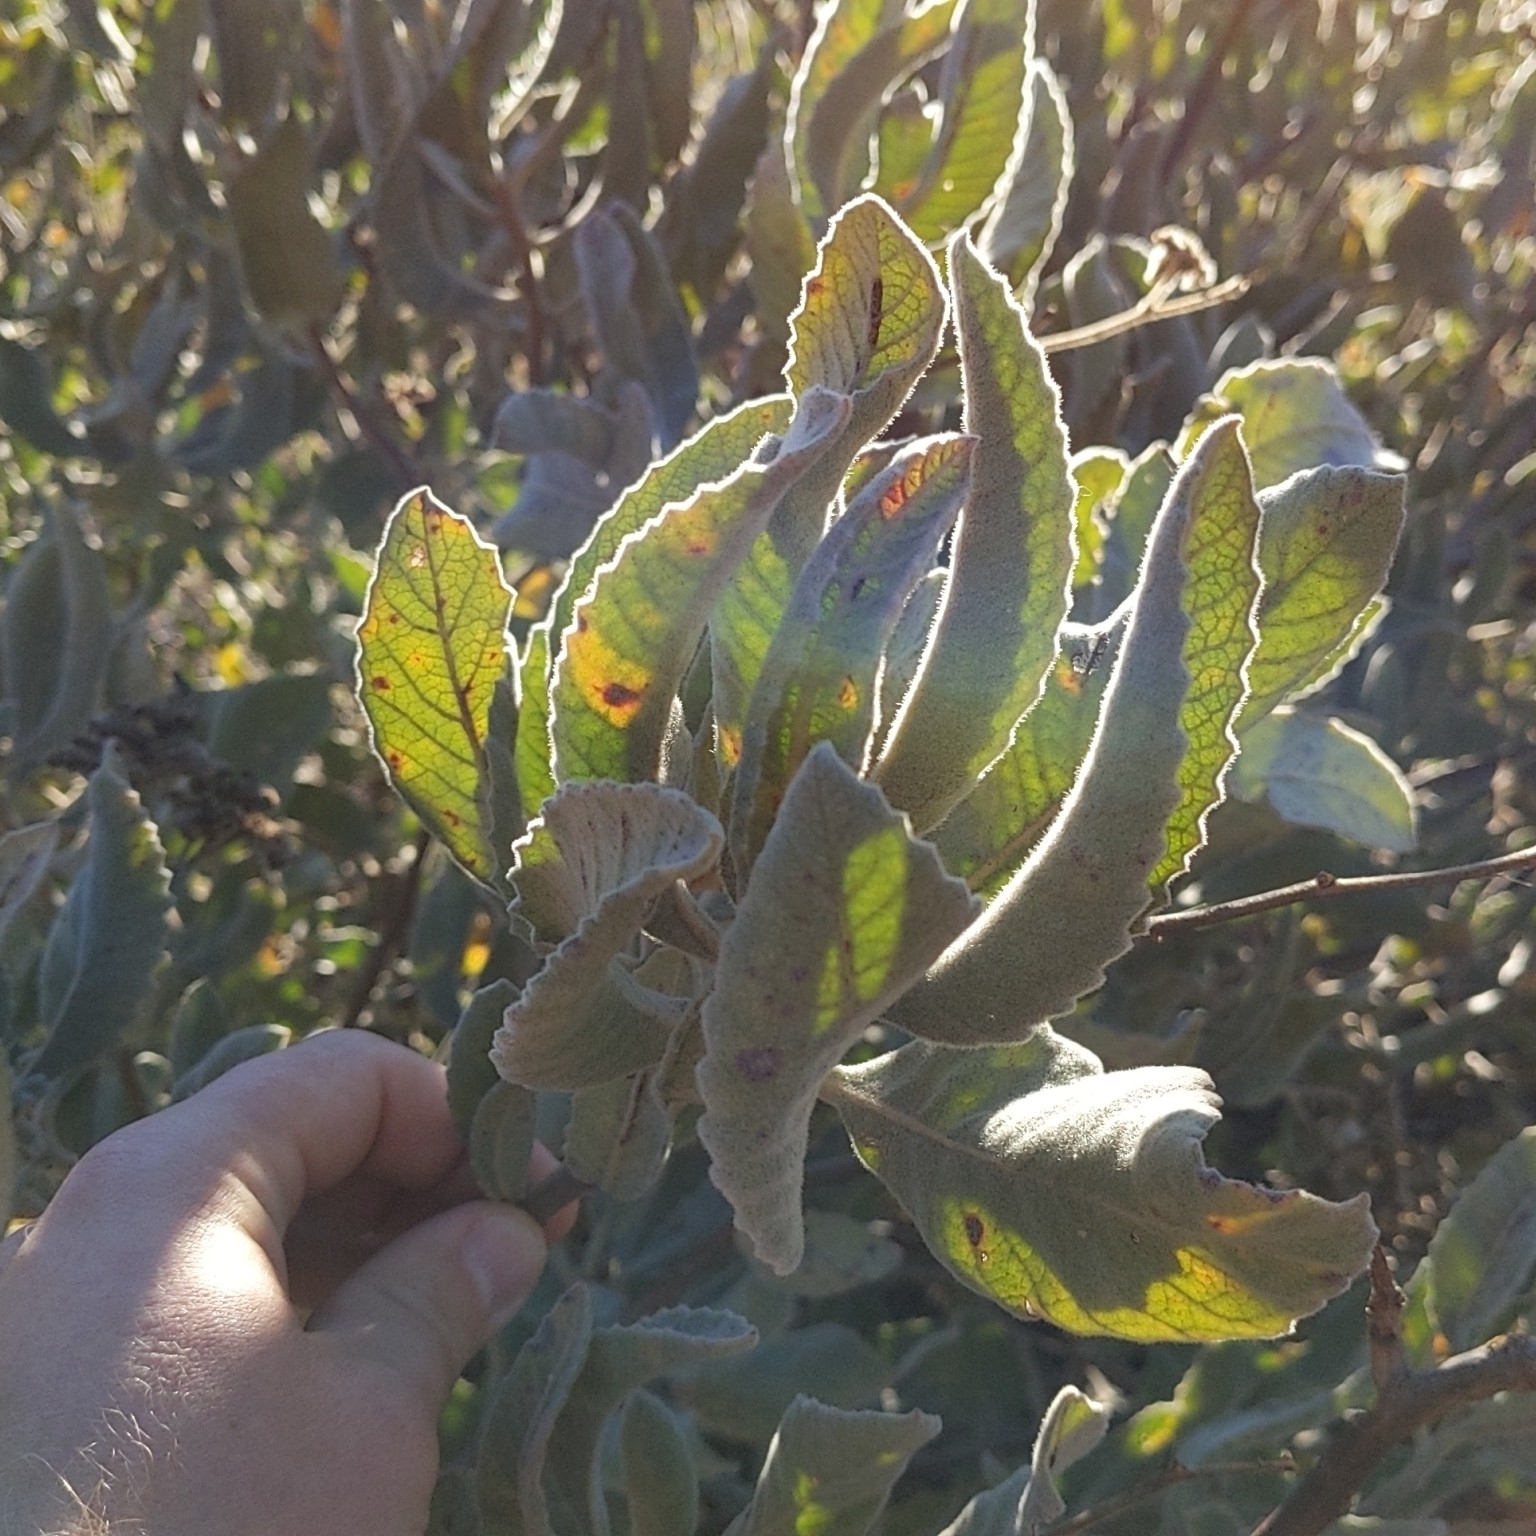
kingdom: Plantae
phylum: Tracheophyta
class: Magnoliopsida
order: Boraginales
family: Namaceae
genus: Eriodictyon
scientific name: Eriodictyon crassifolium
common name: Thick-leaf yerba-santa
